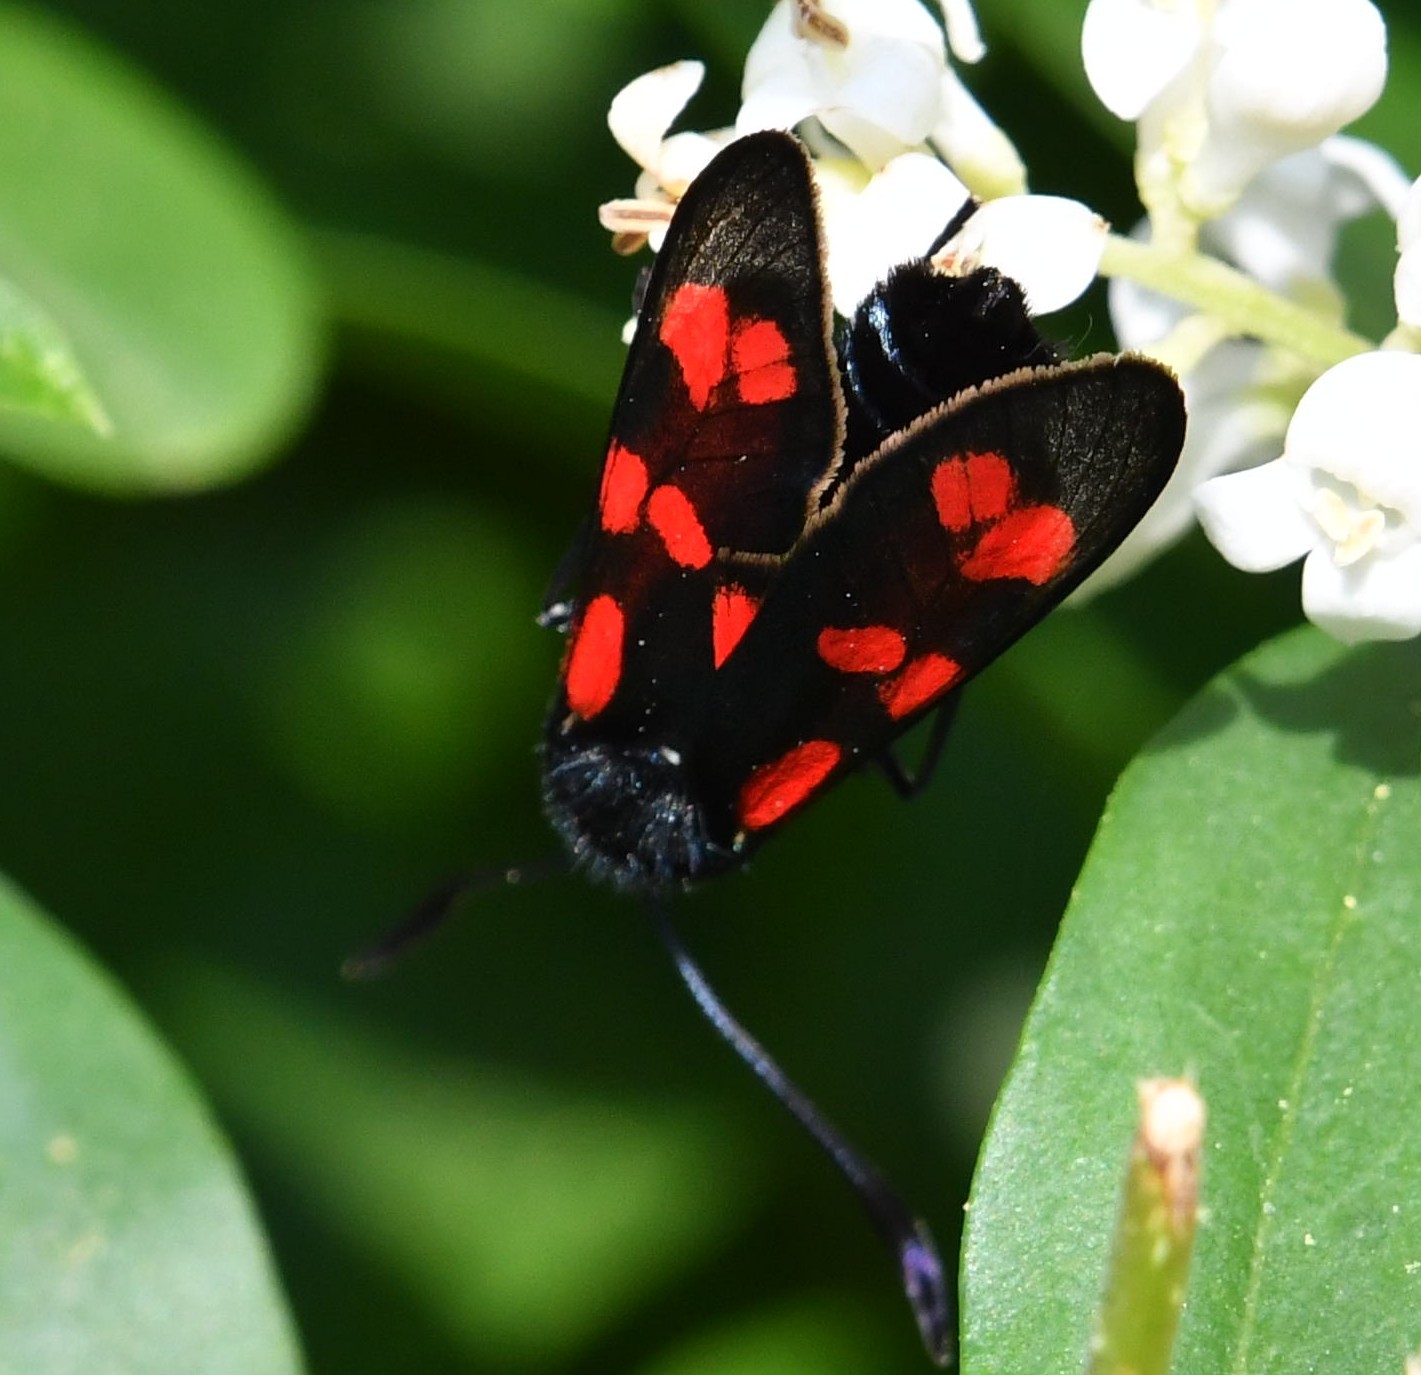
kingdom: Animalia
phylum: Arthropoda
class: Insecta
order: Lepidoptera
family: Zygaenidae
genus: Zygaena
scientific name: Zygaena filipendulae
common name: Six-spot burnet
